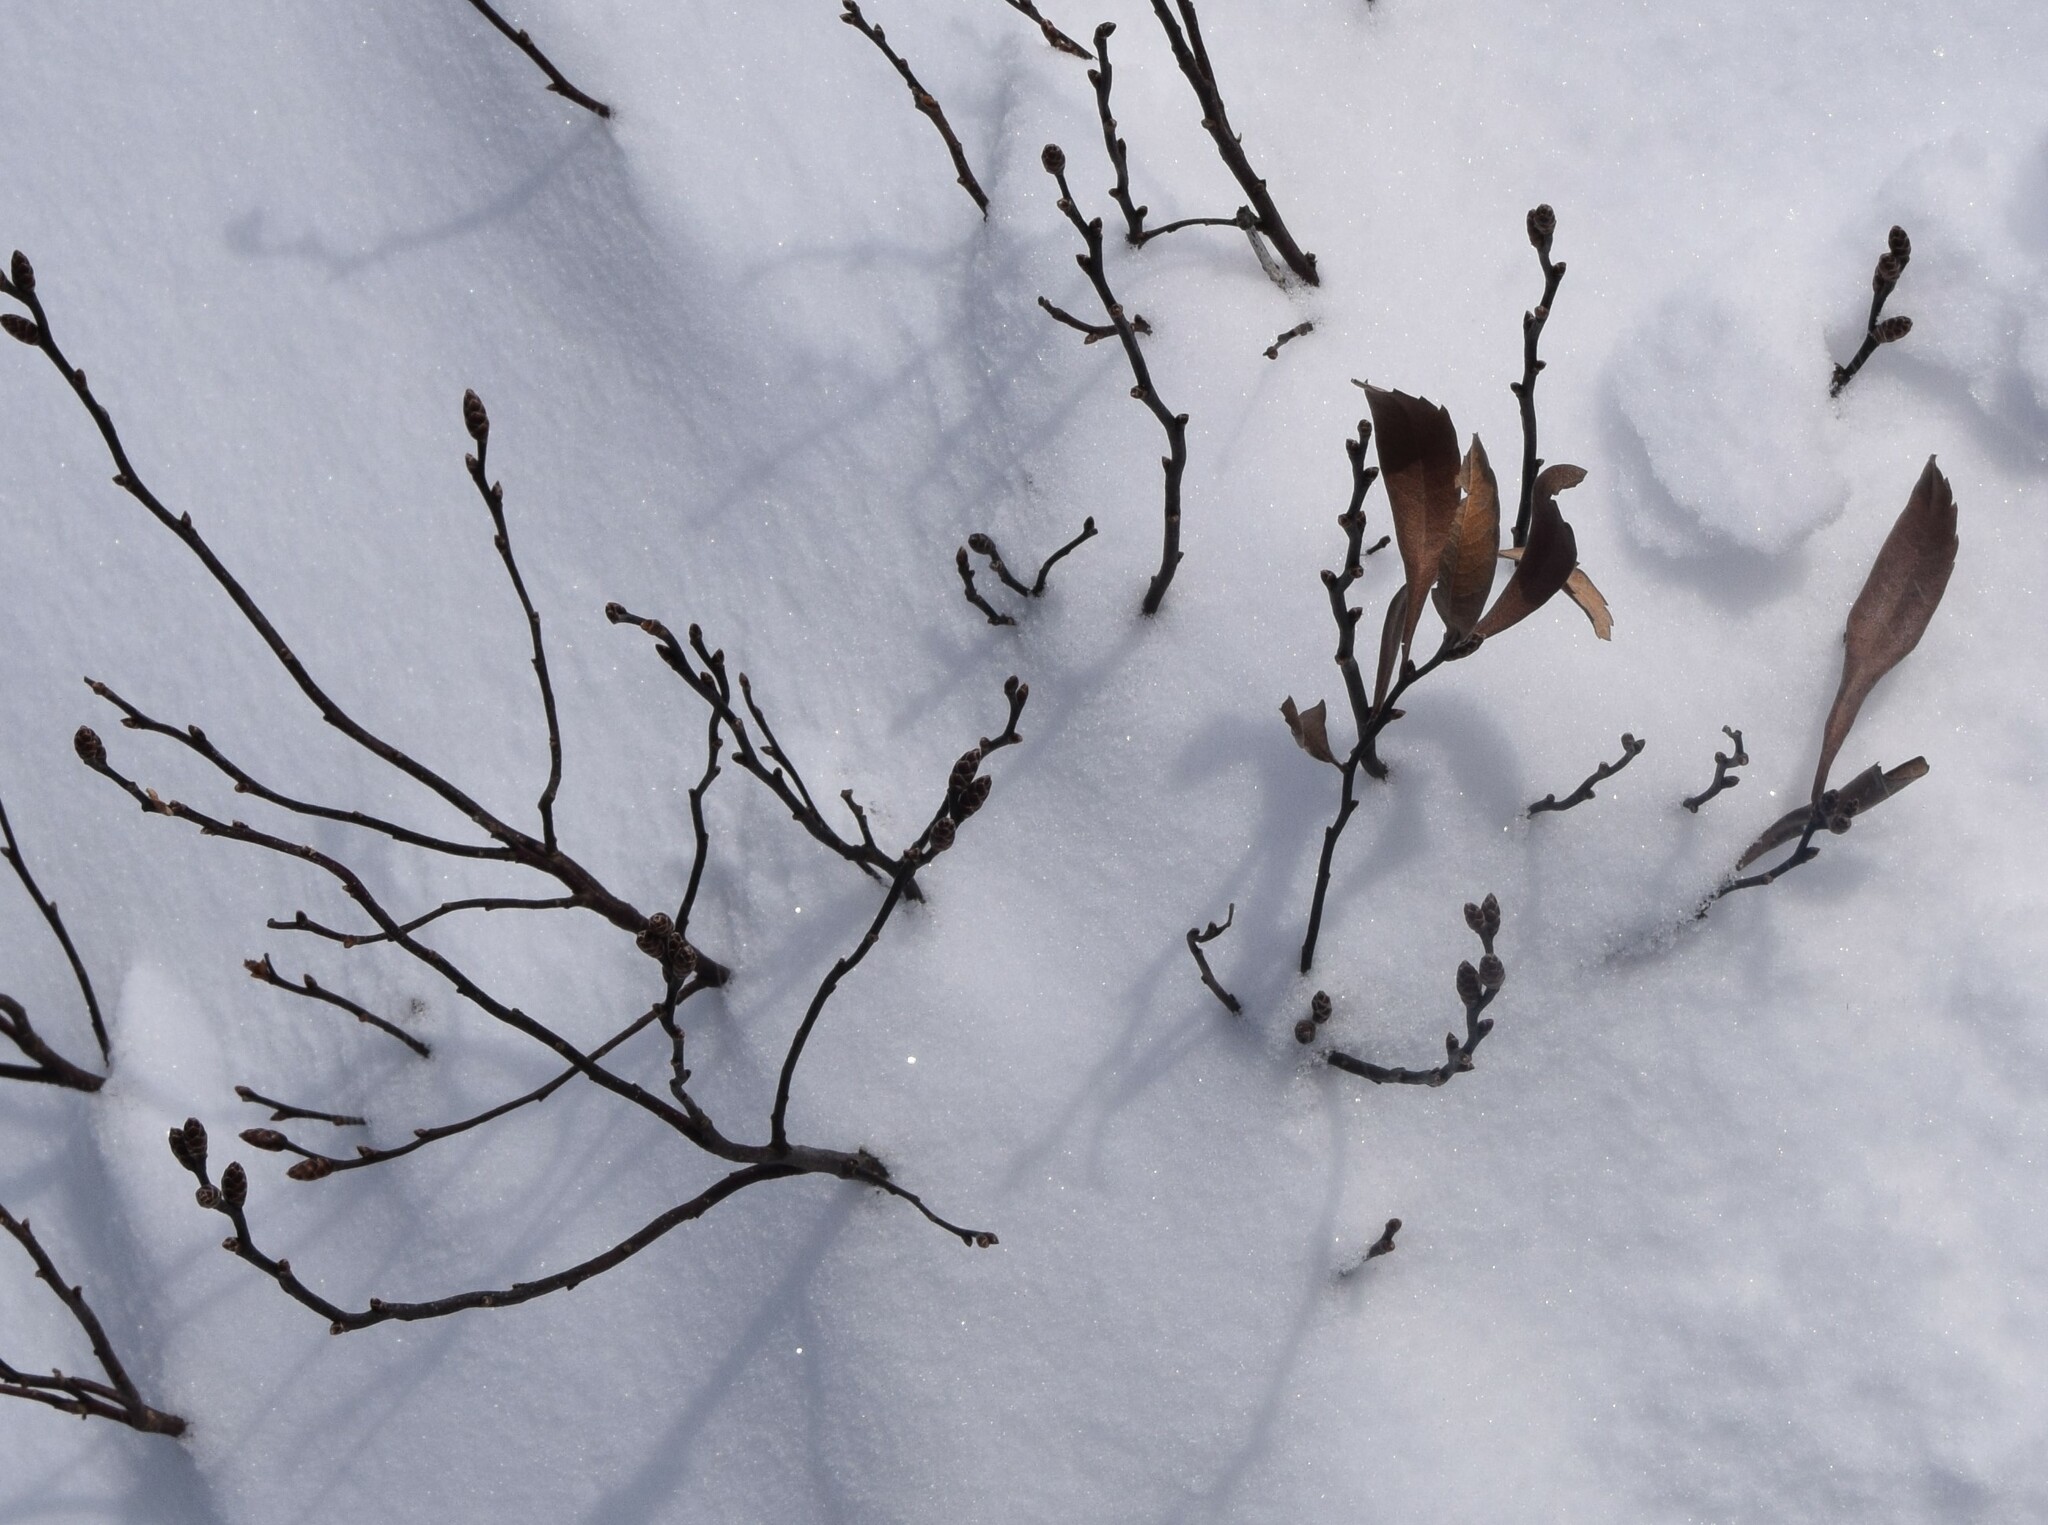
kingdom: Plantae
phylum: Tracheophyta
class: Magnoliopsida
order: Fagales
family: Myricaceae
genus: Myrica
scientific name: Myrica gale
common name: Sweet gale
